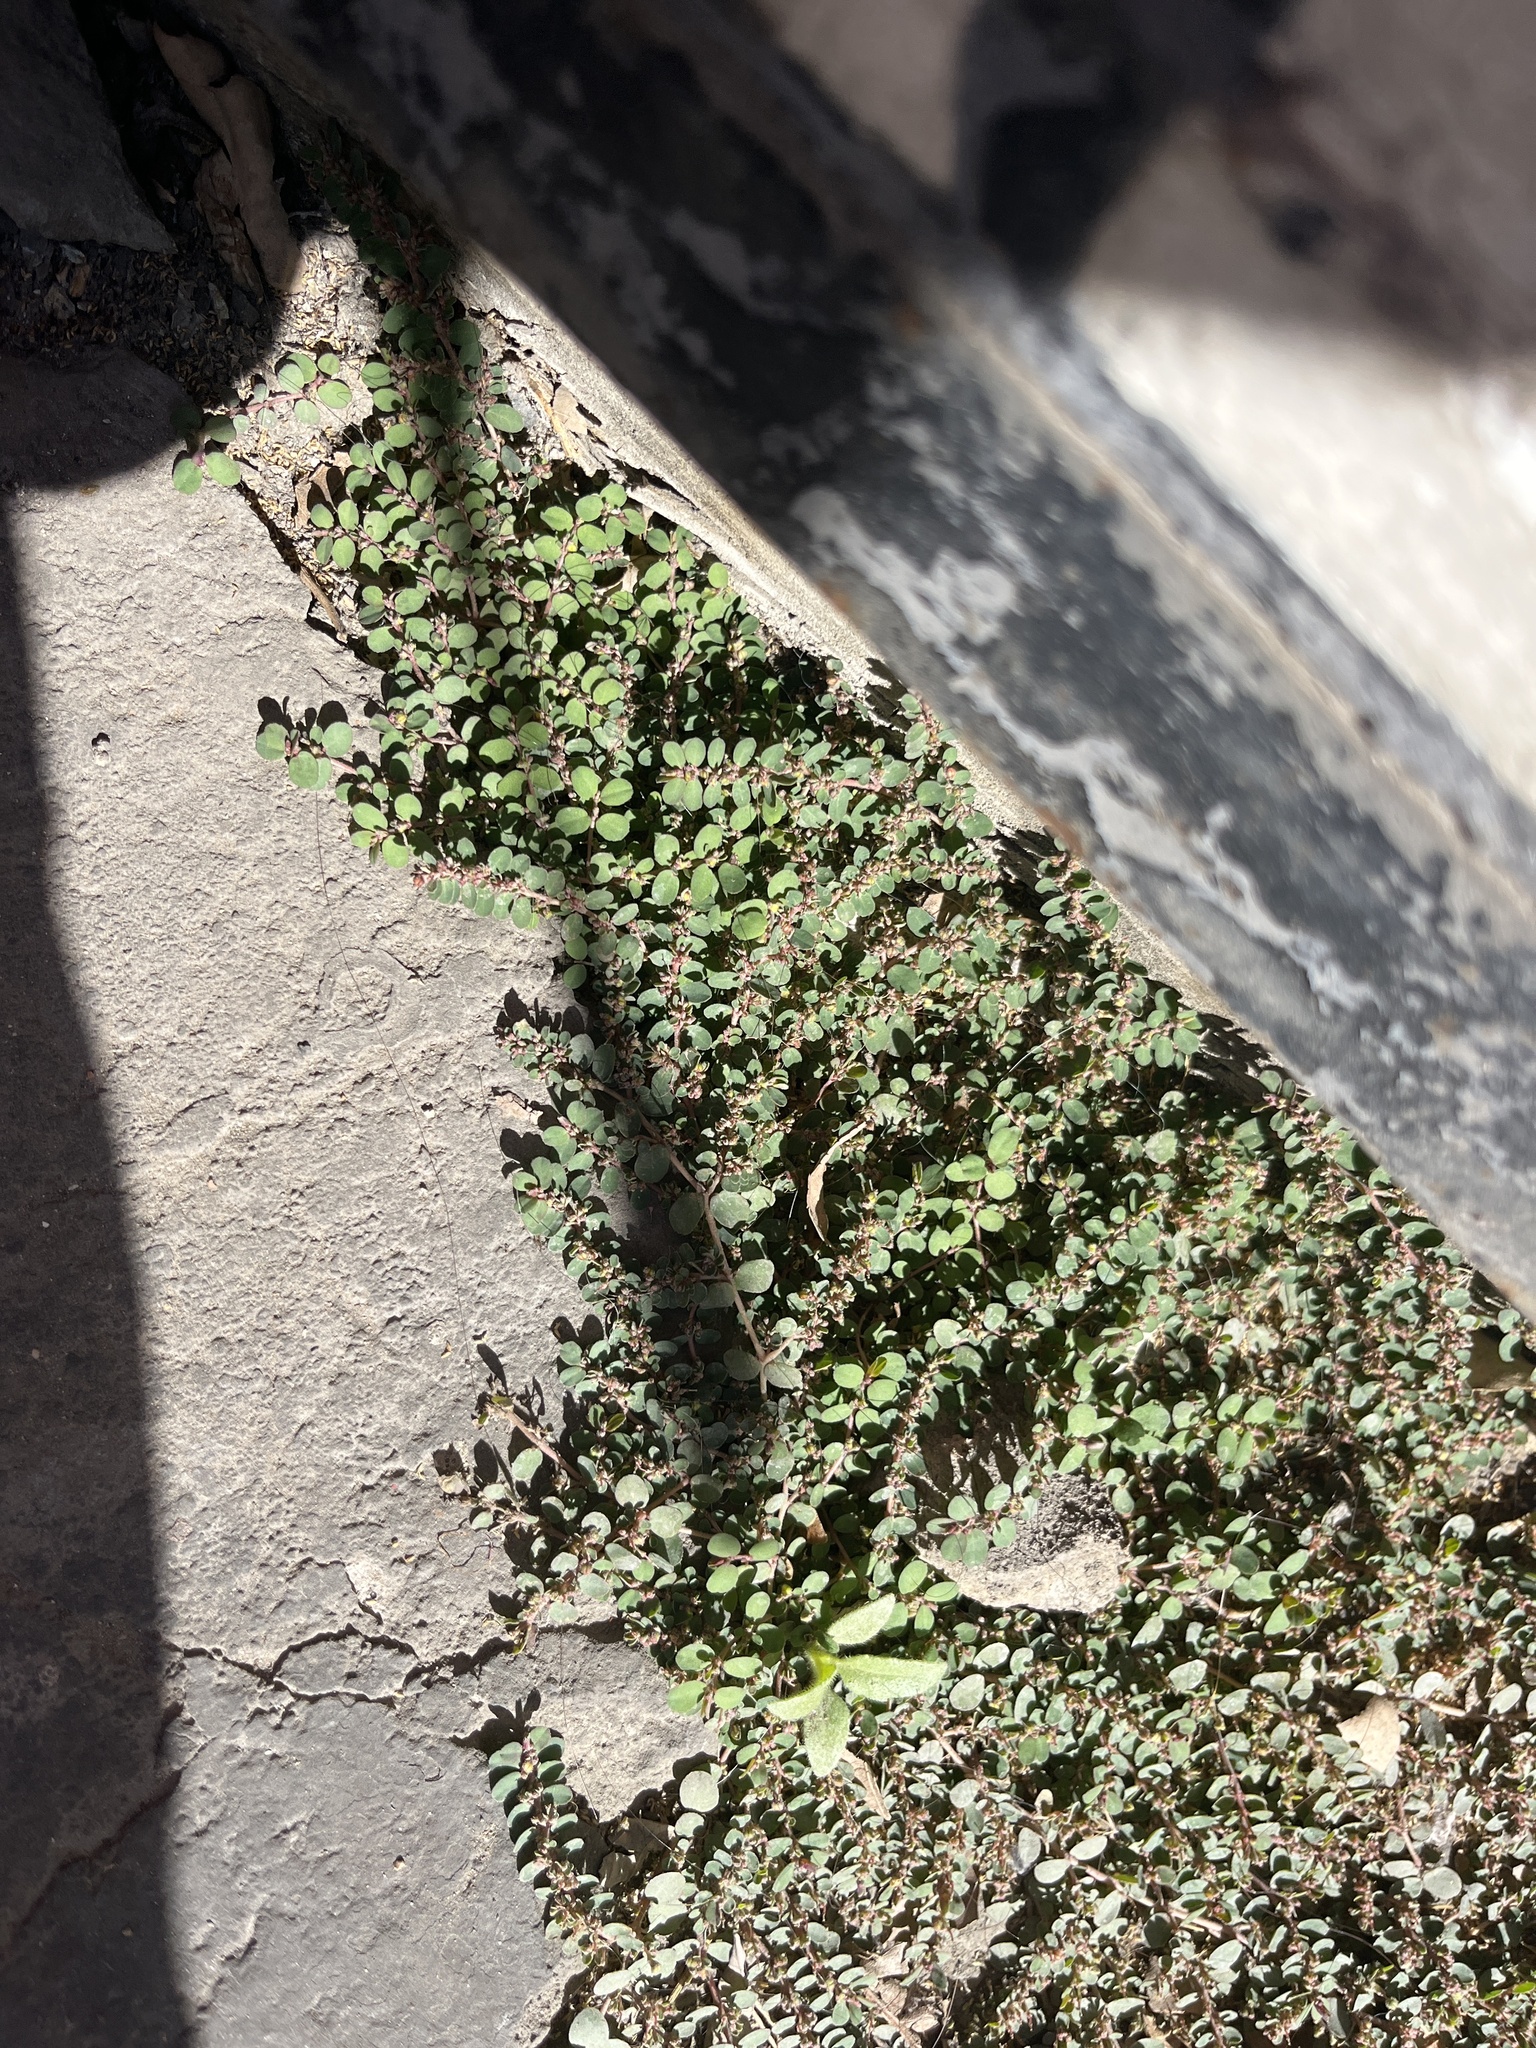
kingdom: Plantae
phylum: Tracheophyta
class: Magnoliopsida
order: Malpighiales
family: Euphorbiaceae
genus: Euphorbia
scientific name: Euphorbia prostrata
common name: Prostrate sandmat
